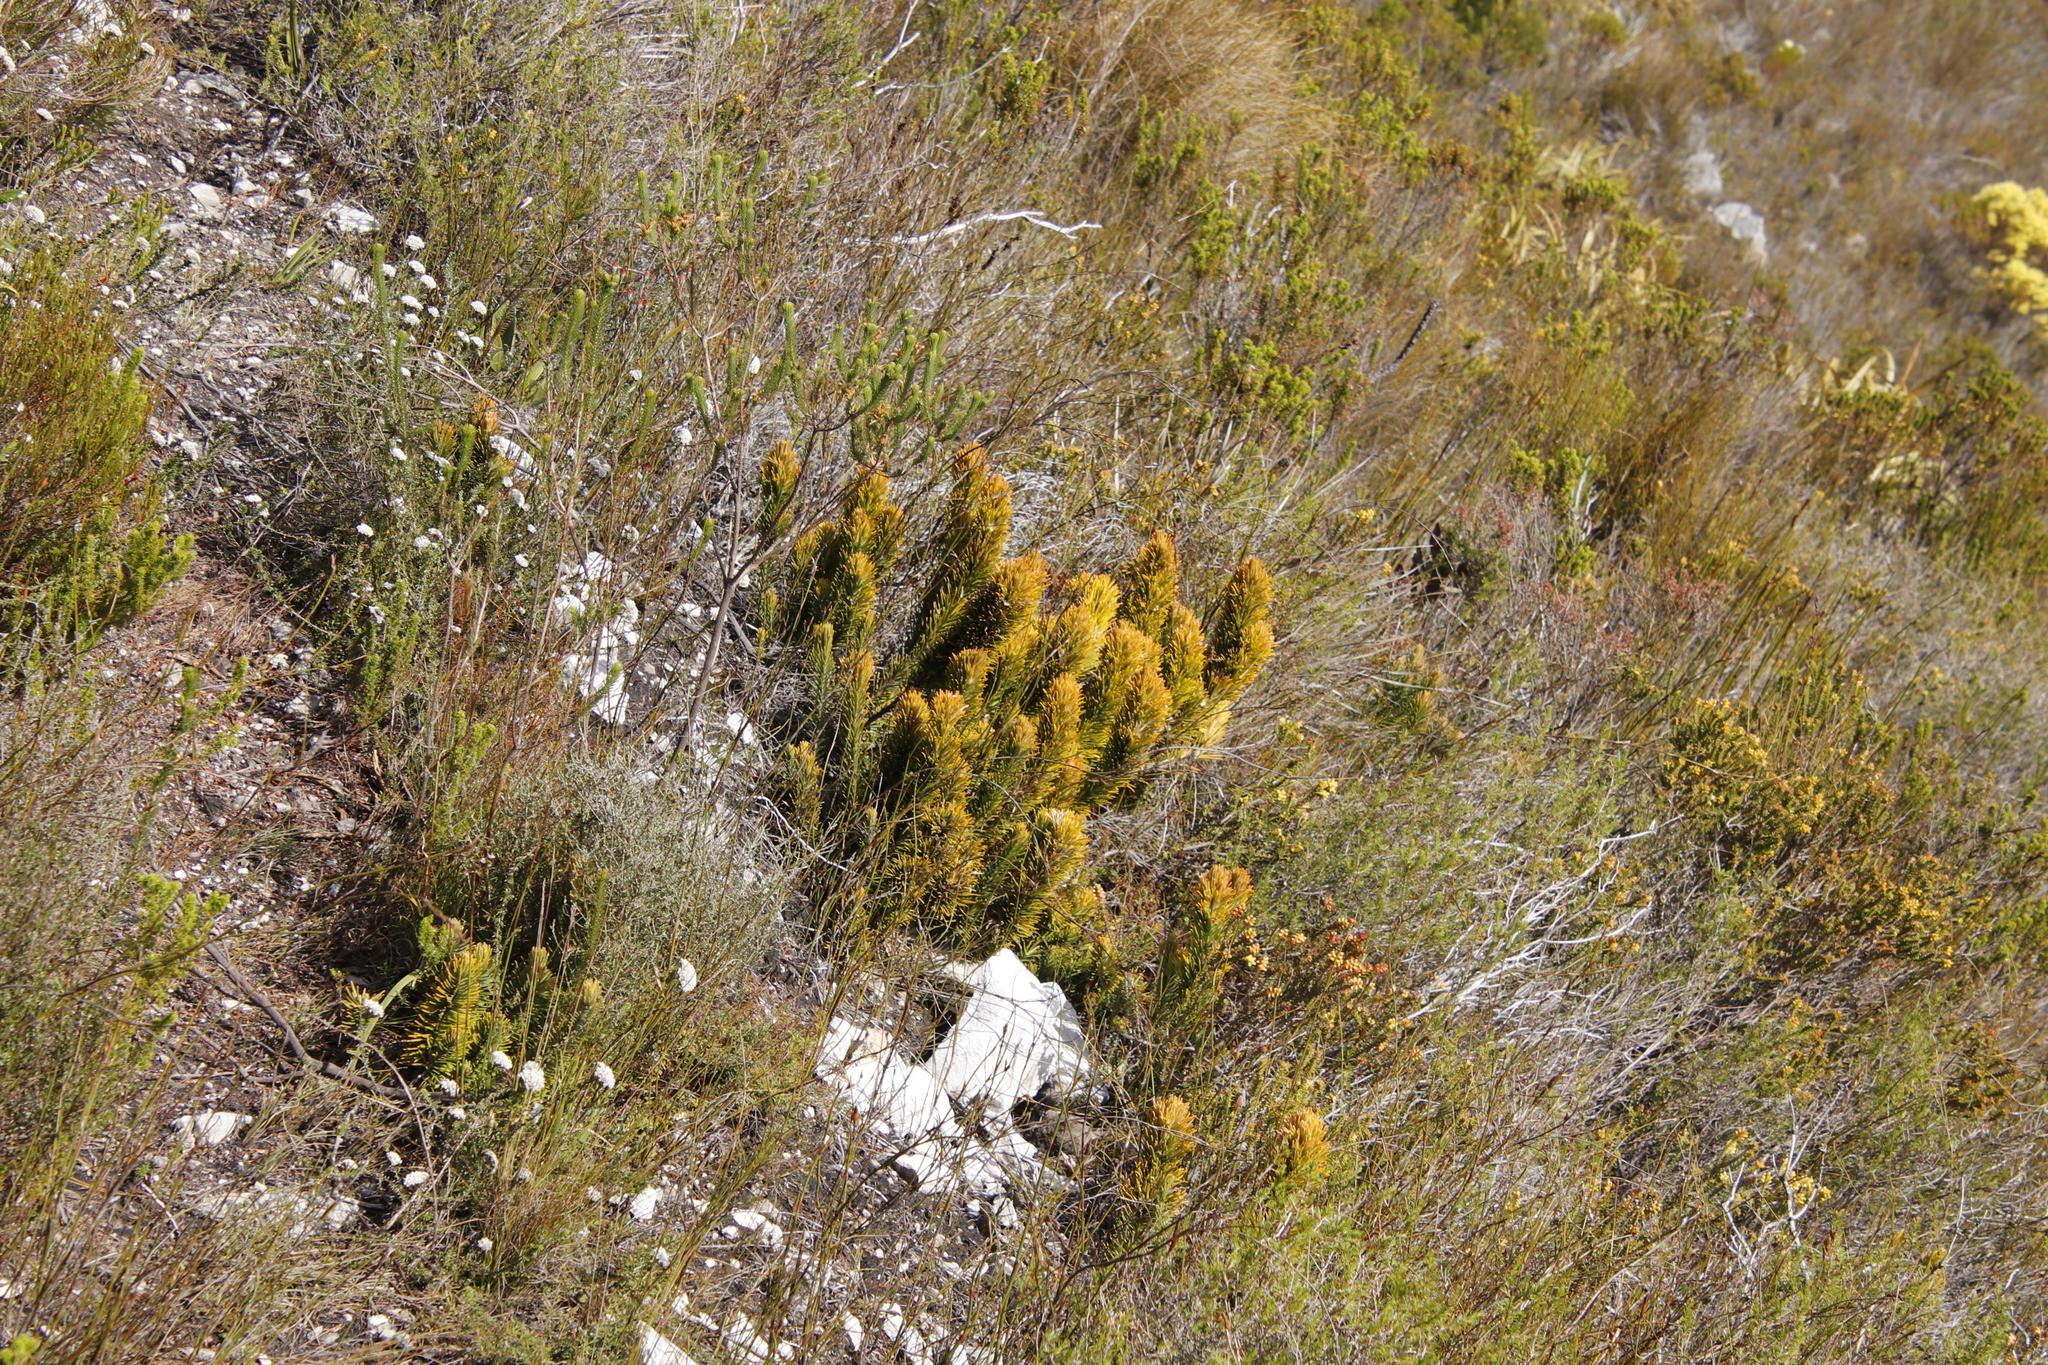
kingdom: Plantae
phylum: Tracheophyta
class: Magnoliopsida
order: Lamiales
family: Stilbaceae
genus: Retzia
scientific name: Retzia capensis
